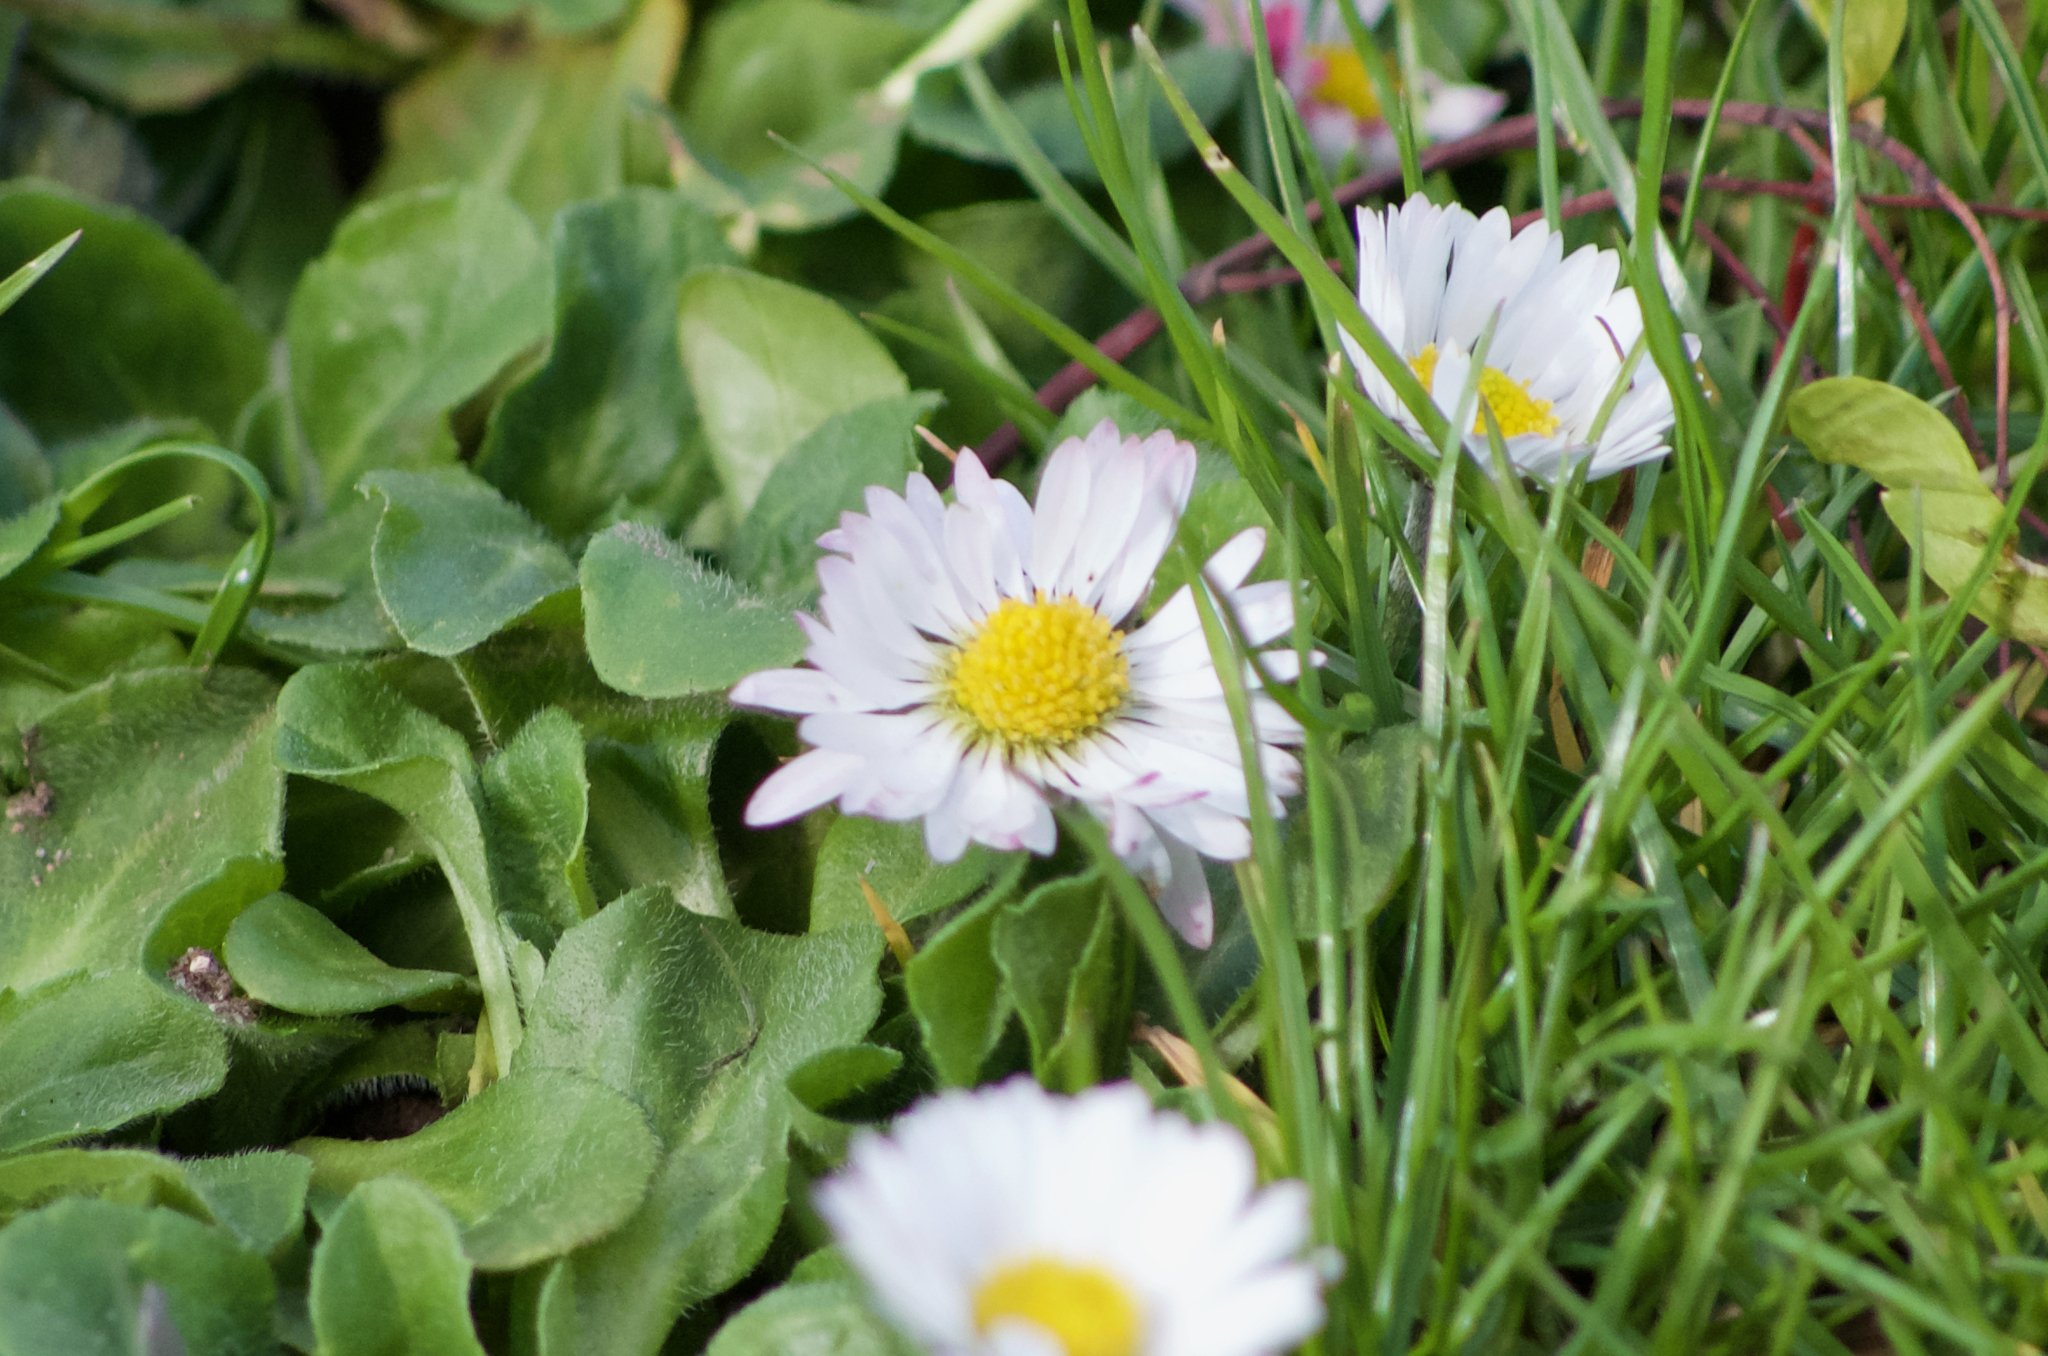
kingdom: Plantae
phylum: Tracheophyta
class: Magnoliopsida
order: Asterales
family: Asteraceae
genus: Bellis
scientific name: Bellis perennis
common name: Lawndaisy
